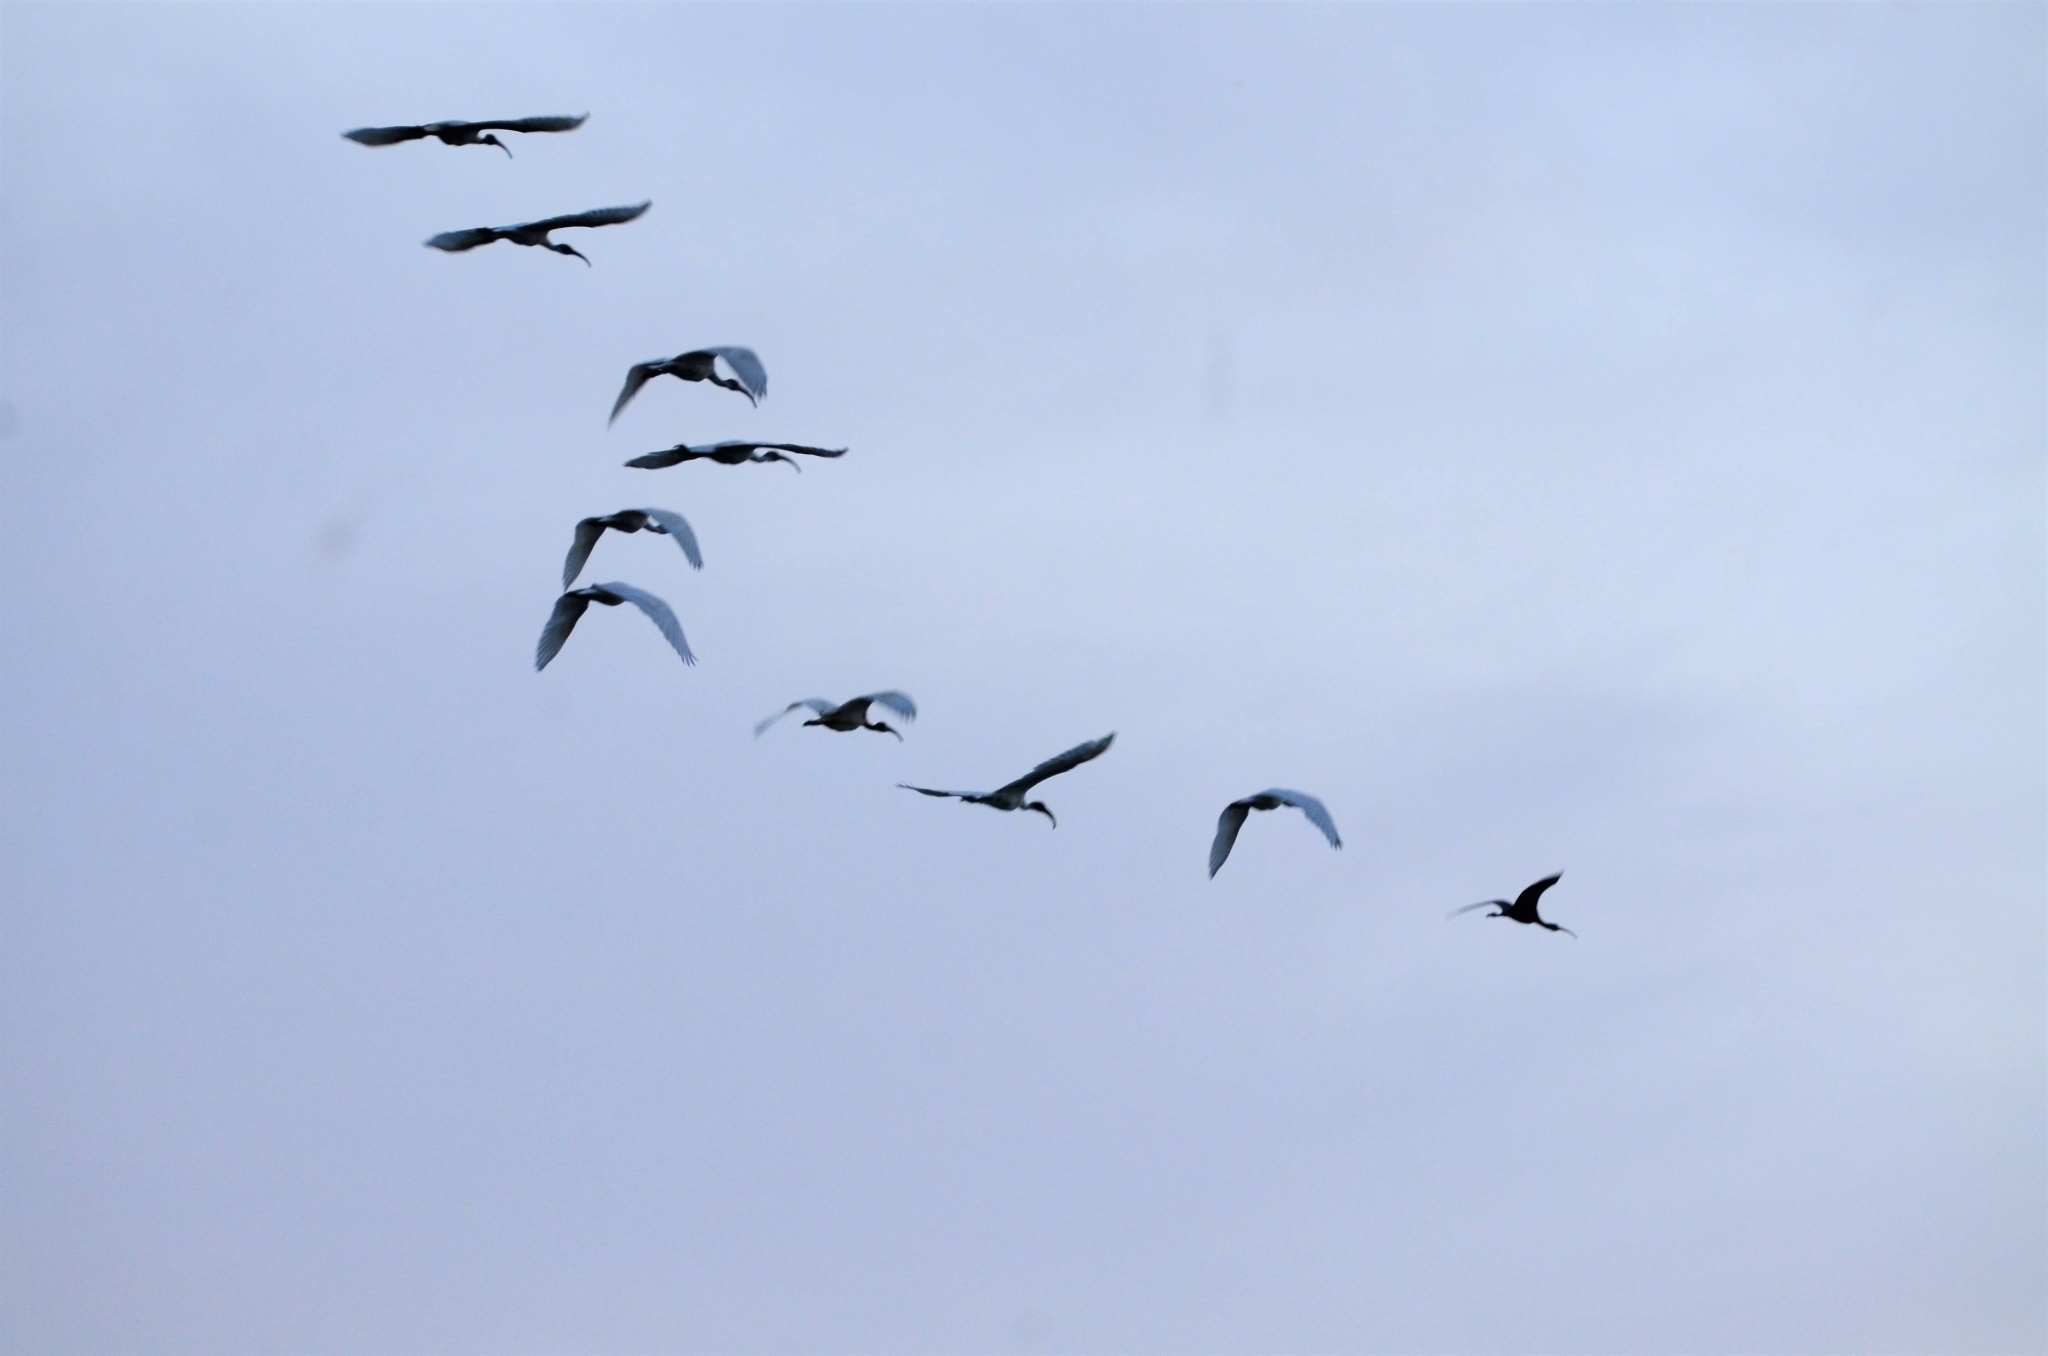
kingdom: Animalia
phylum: Chordata
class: Aves
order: Pelecaniformes
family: Threskiornithidae
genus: Threskiornis
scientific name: Threskiornis melanocephalus
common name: Black-headed ibis
